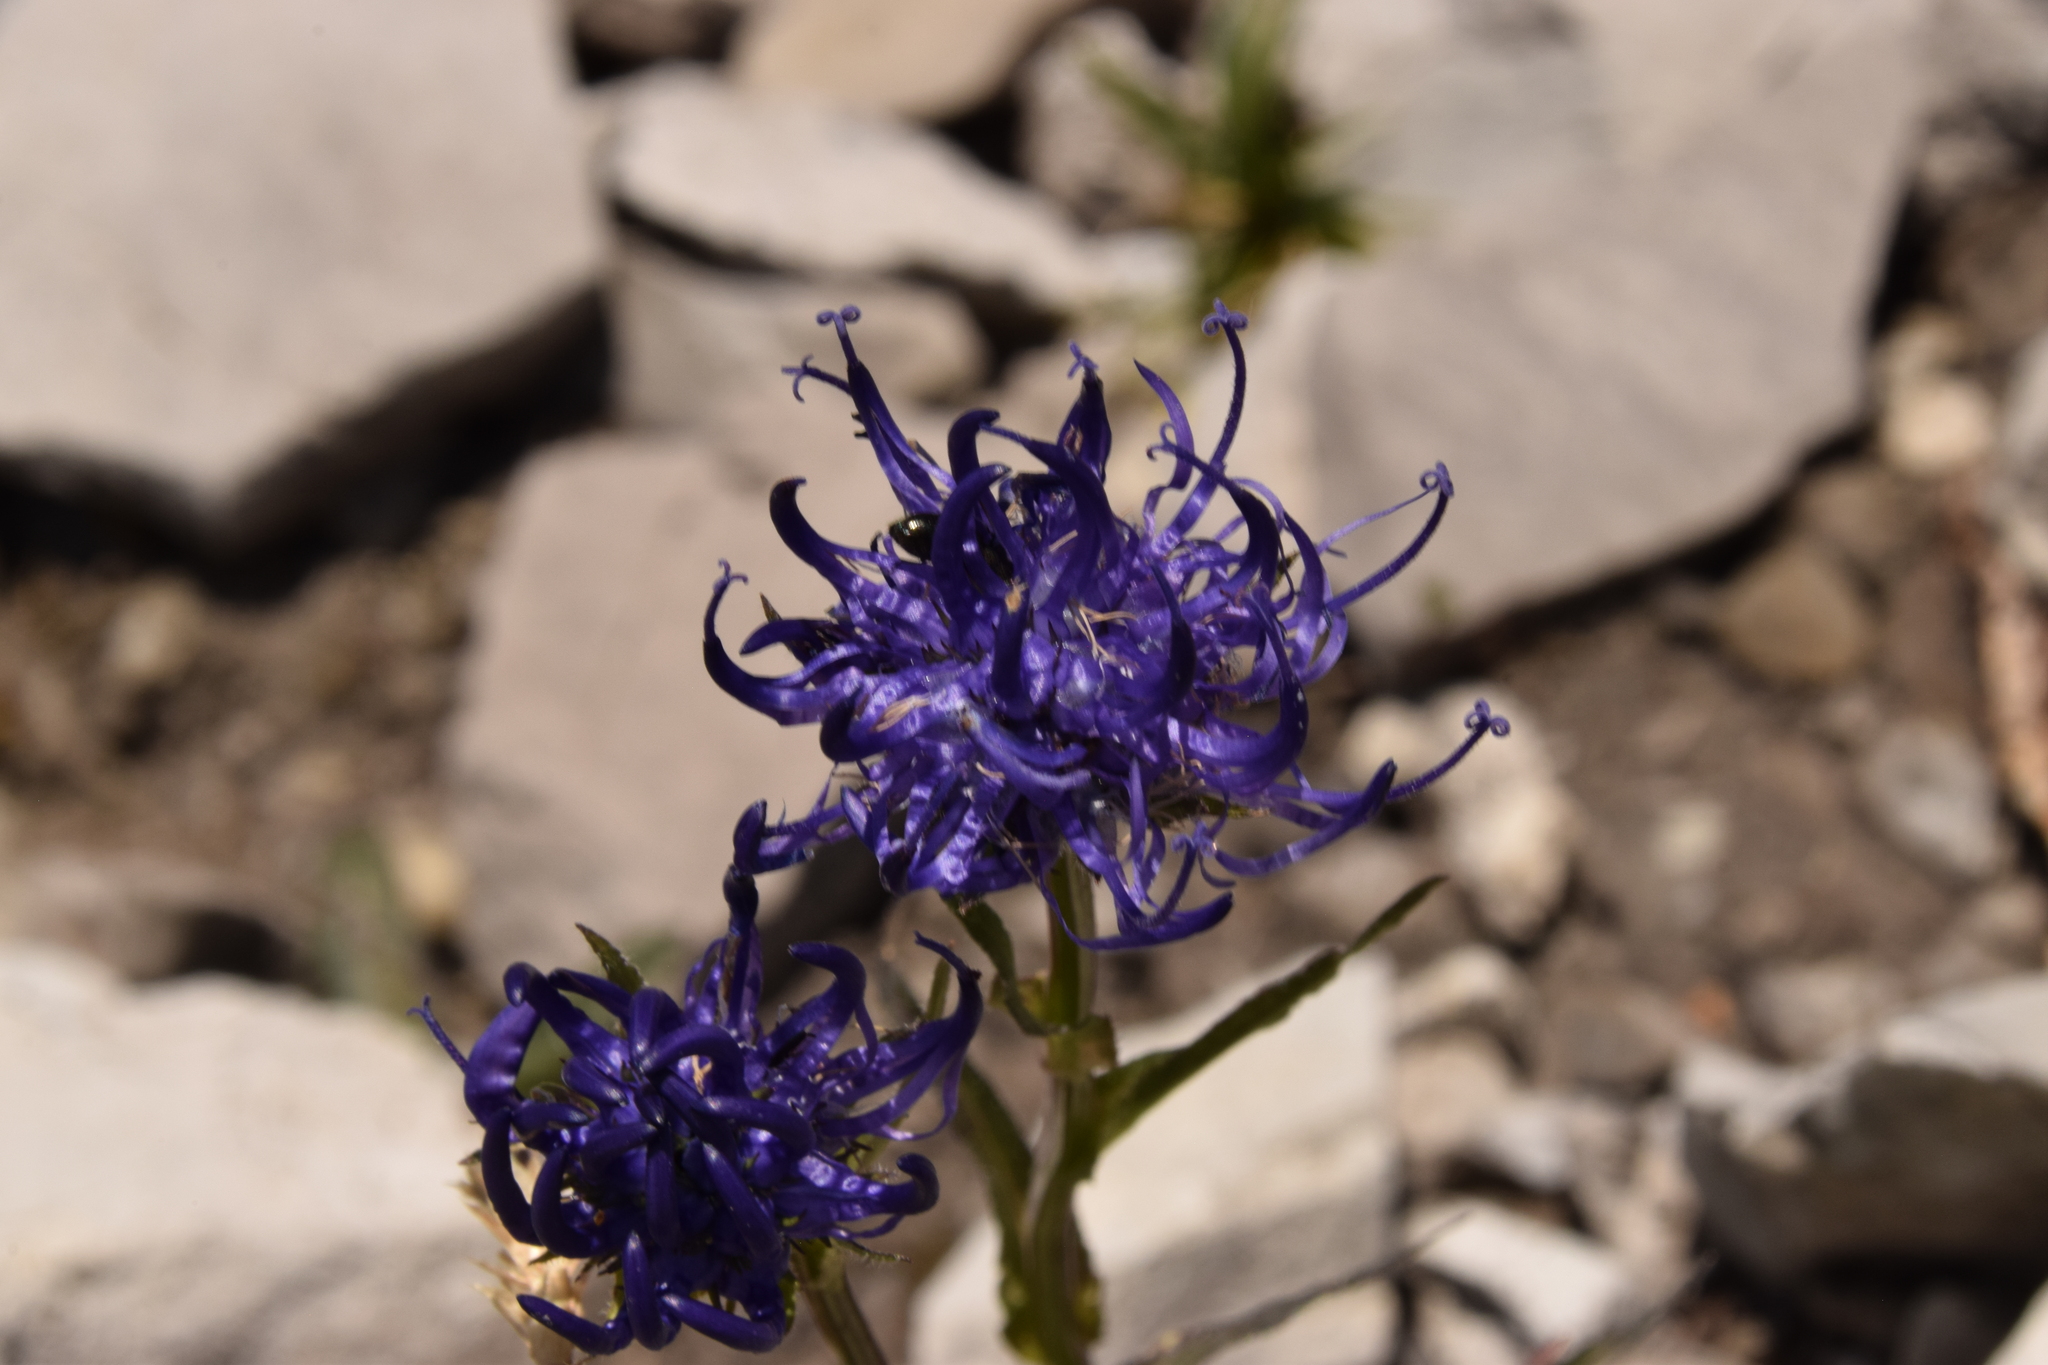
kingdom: Plantae
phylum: Tracheophyta
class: Magnoliopsida
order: Asterales
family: Campanulaceae
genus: Phyteuma
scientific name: Phyteuma orbiculare
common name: Round-headed rampion
